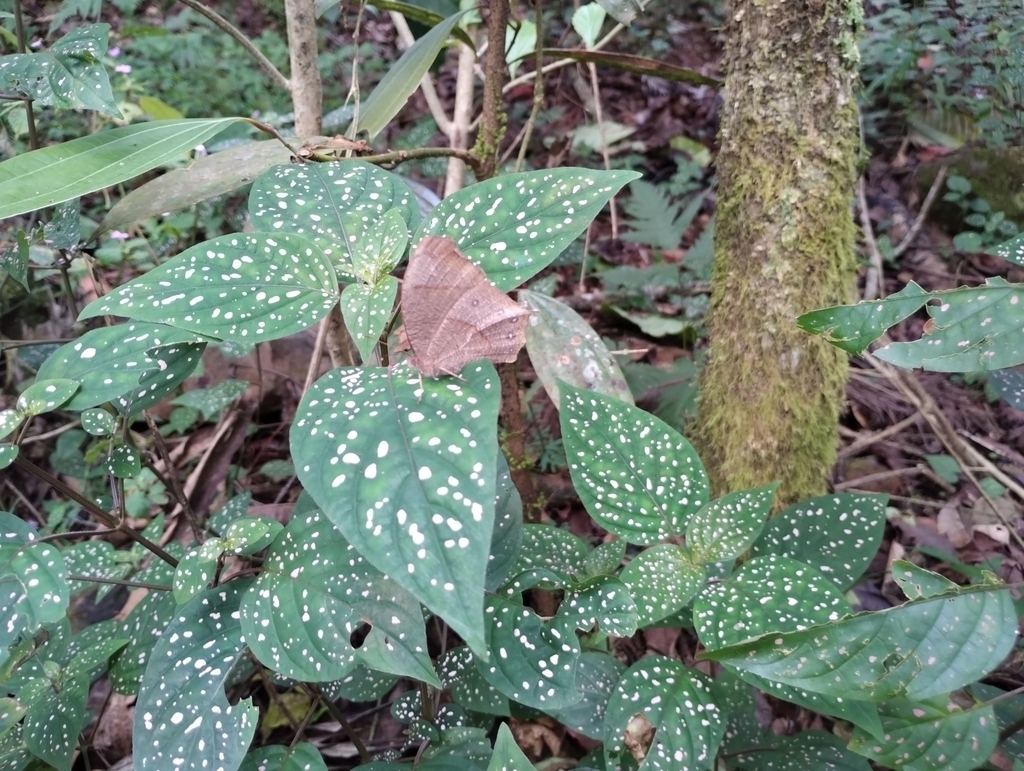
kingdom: Plantae
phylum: Tracheophyta
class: Magnoliopsida
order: Lamiales
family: Acanthaceae
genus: Hypoestes
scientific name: Hypoestes phyllostachya
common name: Polkadot-plant
